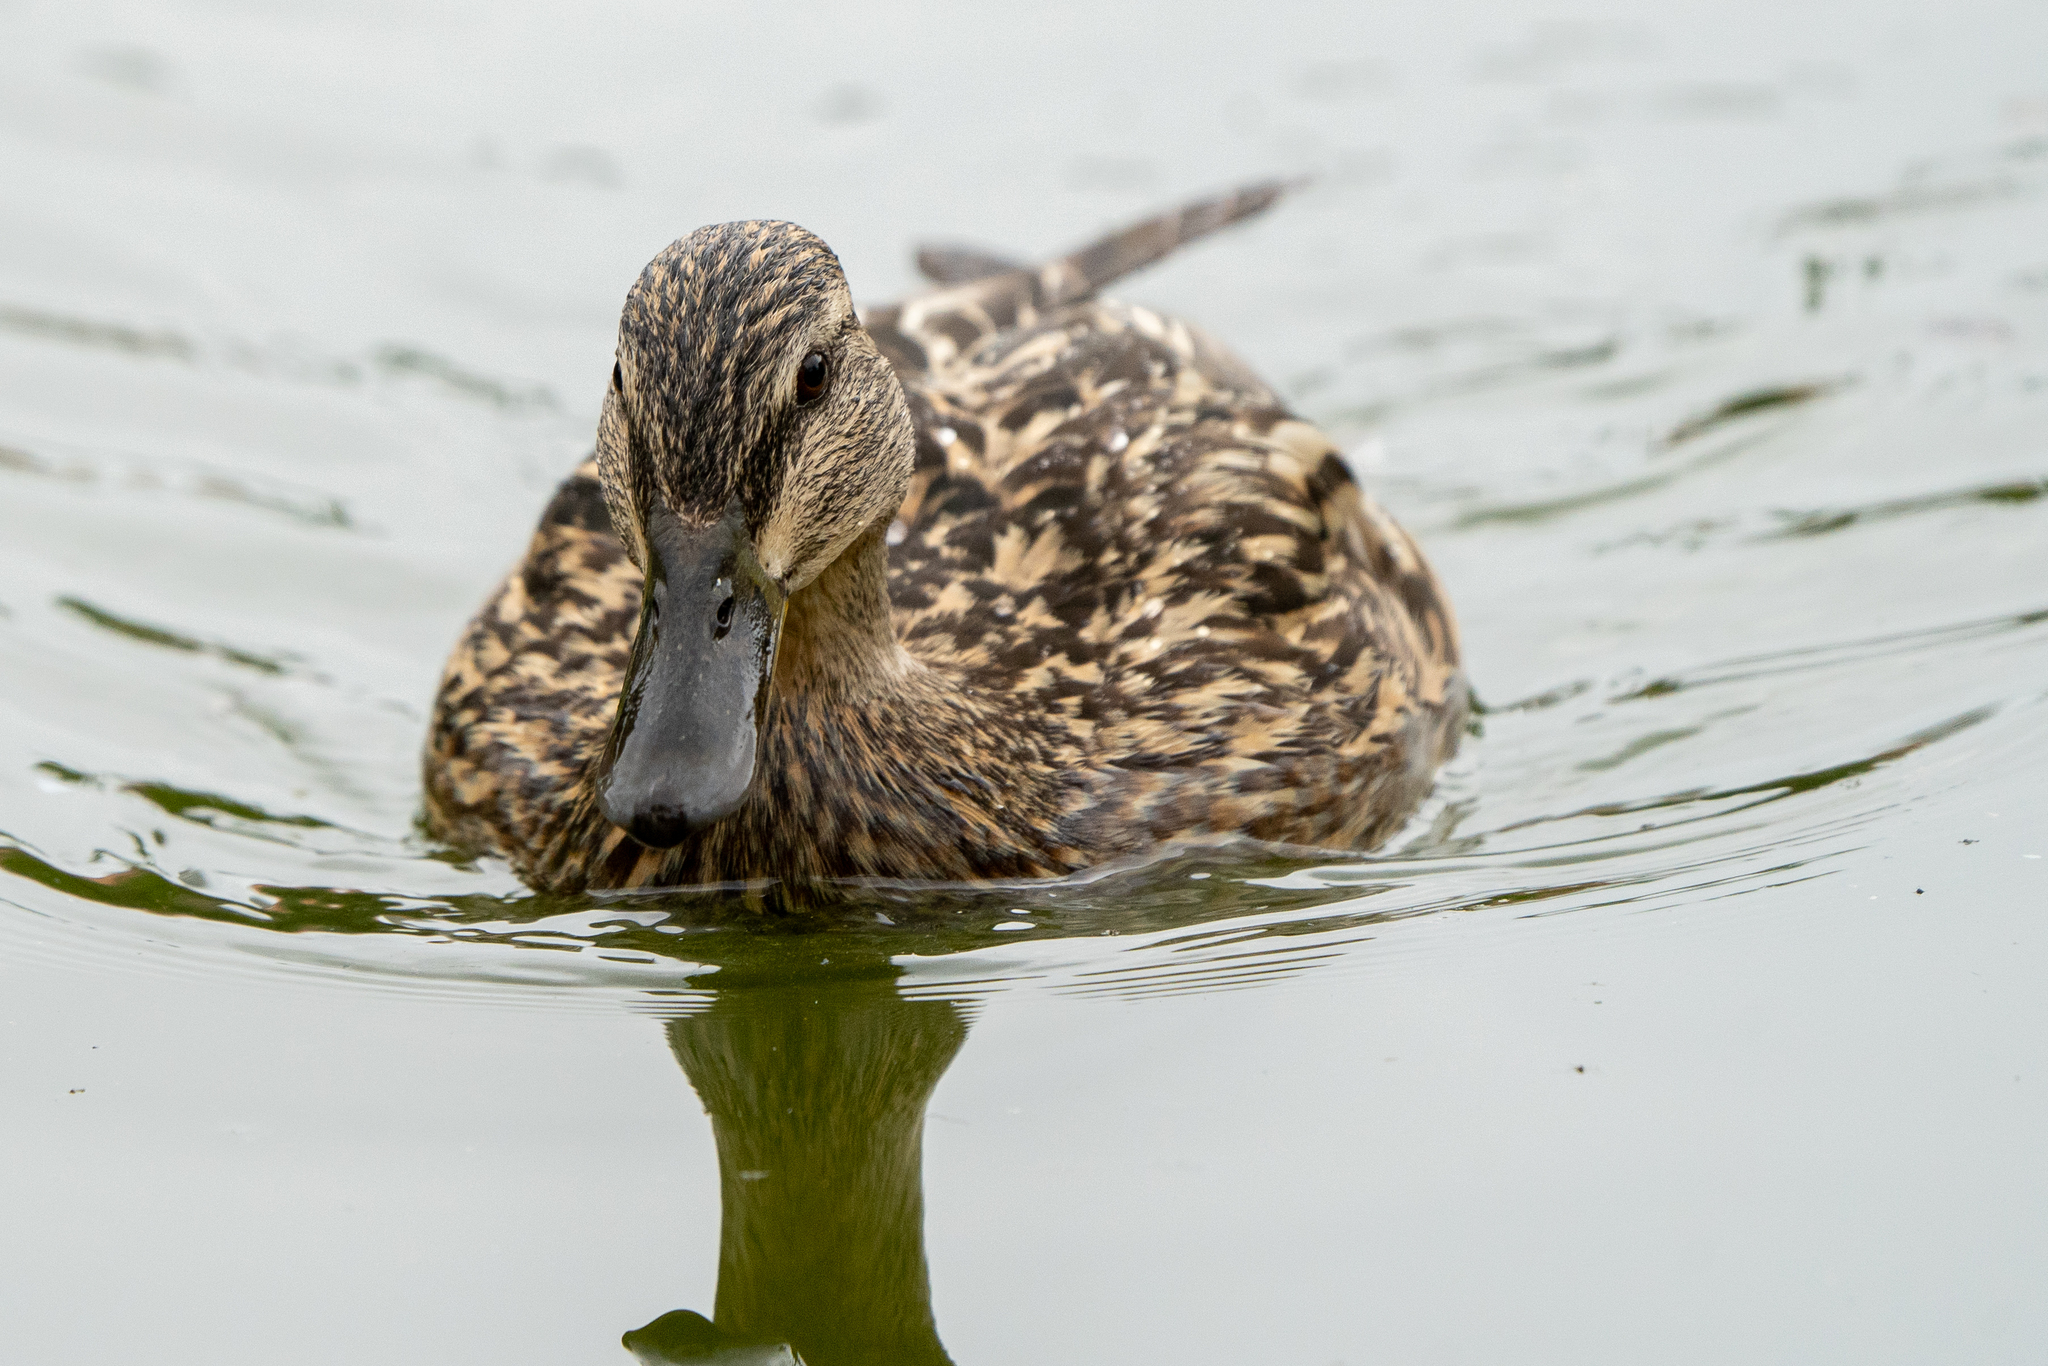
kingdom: Animalia
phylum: Chordata
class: Aves
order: Anseriformes
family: Anatidae
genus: Anas
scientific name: Anas platyrhynchos
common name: Mallard
